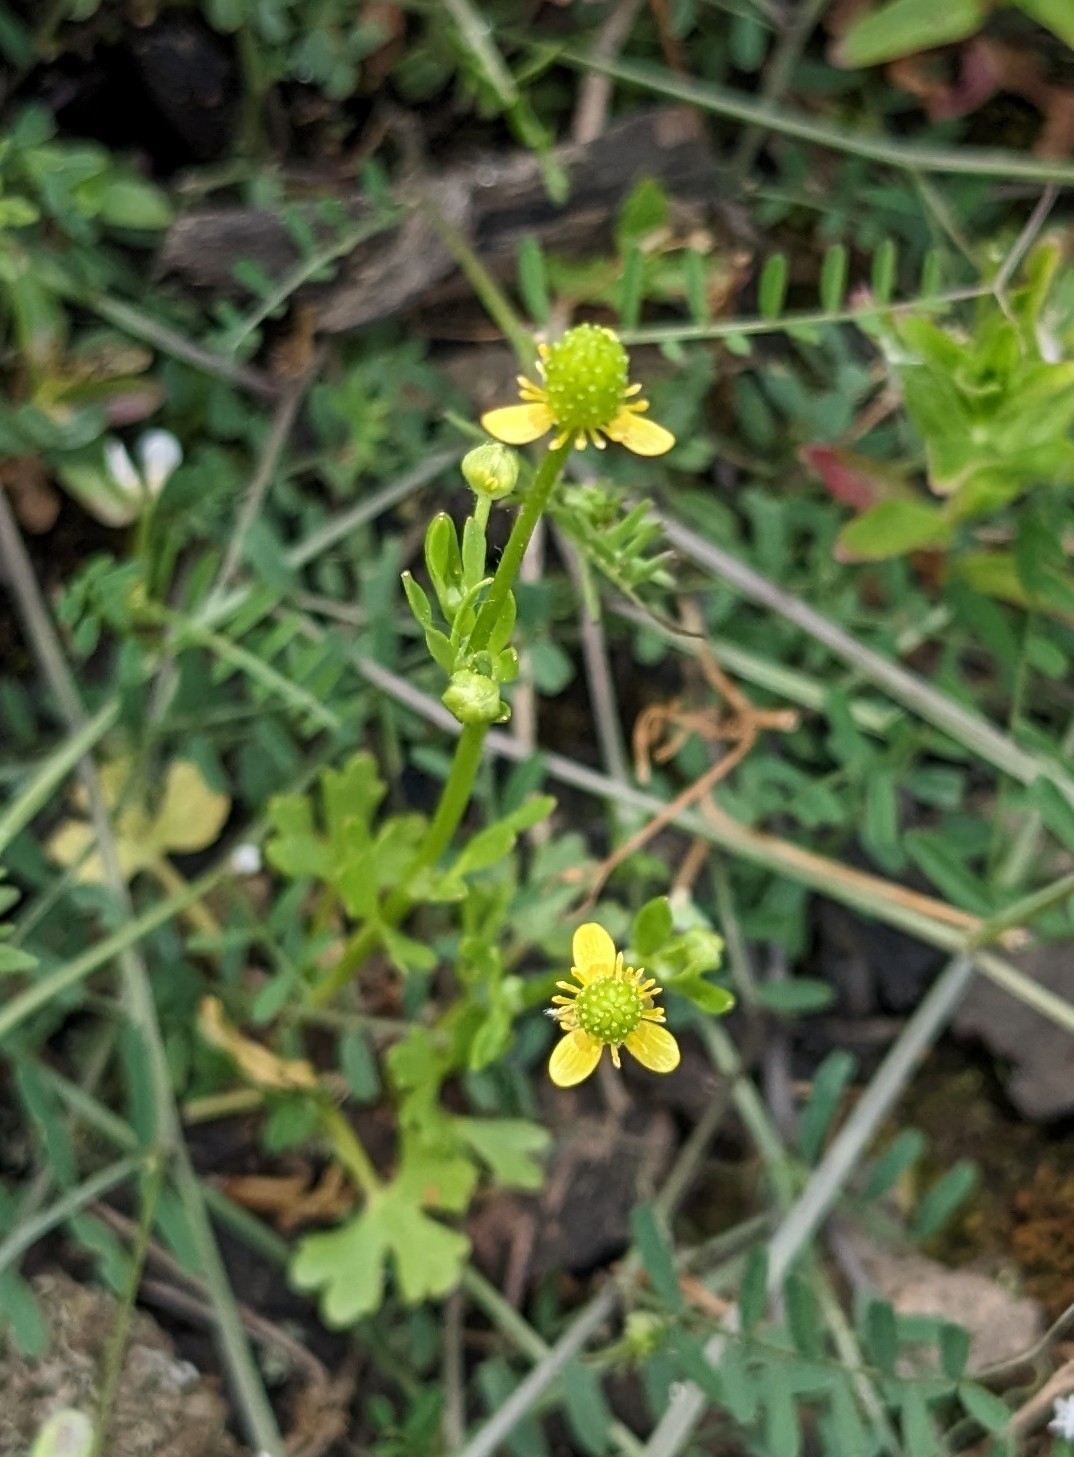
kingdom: Plantae
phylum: Tracheophyta
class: Magnoliopsida
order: Ranunculales
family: Ranunculaceae
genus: Ranunculus
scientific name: Ranunculus sceleratus
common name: Celery-leaved buttercup
